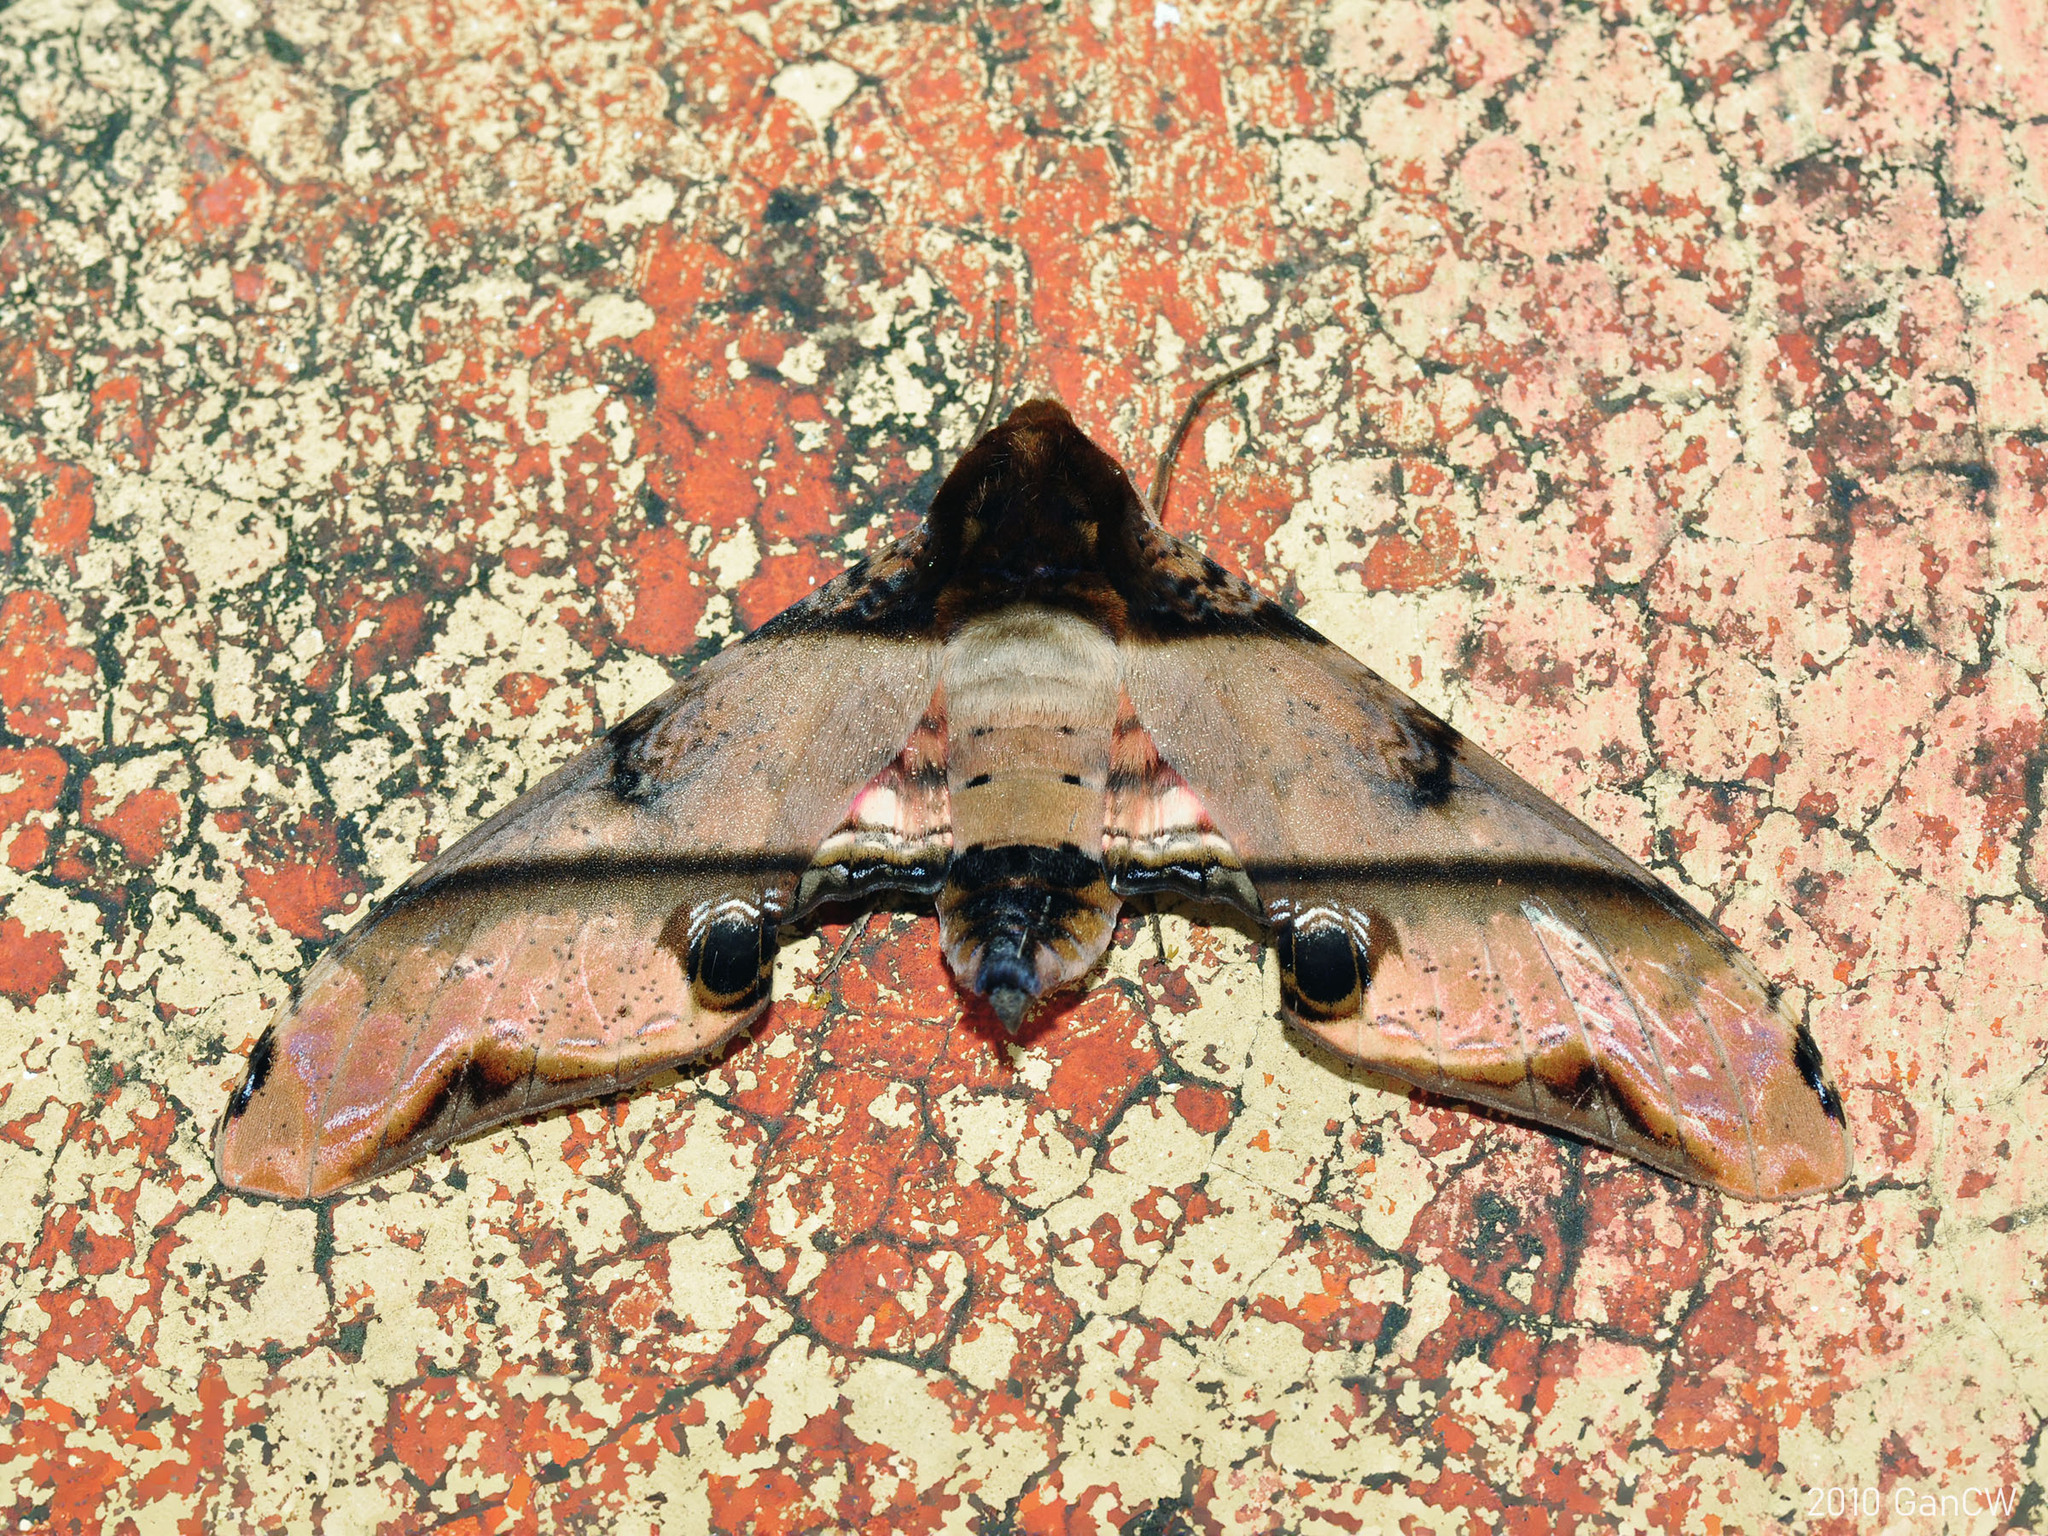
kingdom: Animalia
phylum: Arthropoda
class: Insecta
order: Lepidoptera
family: Sphingidae
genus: Amplypterus
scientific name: Amplypterus panopus
